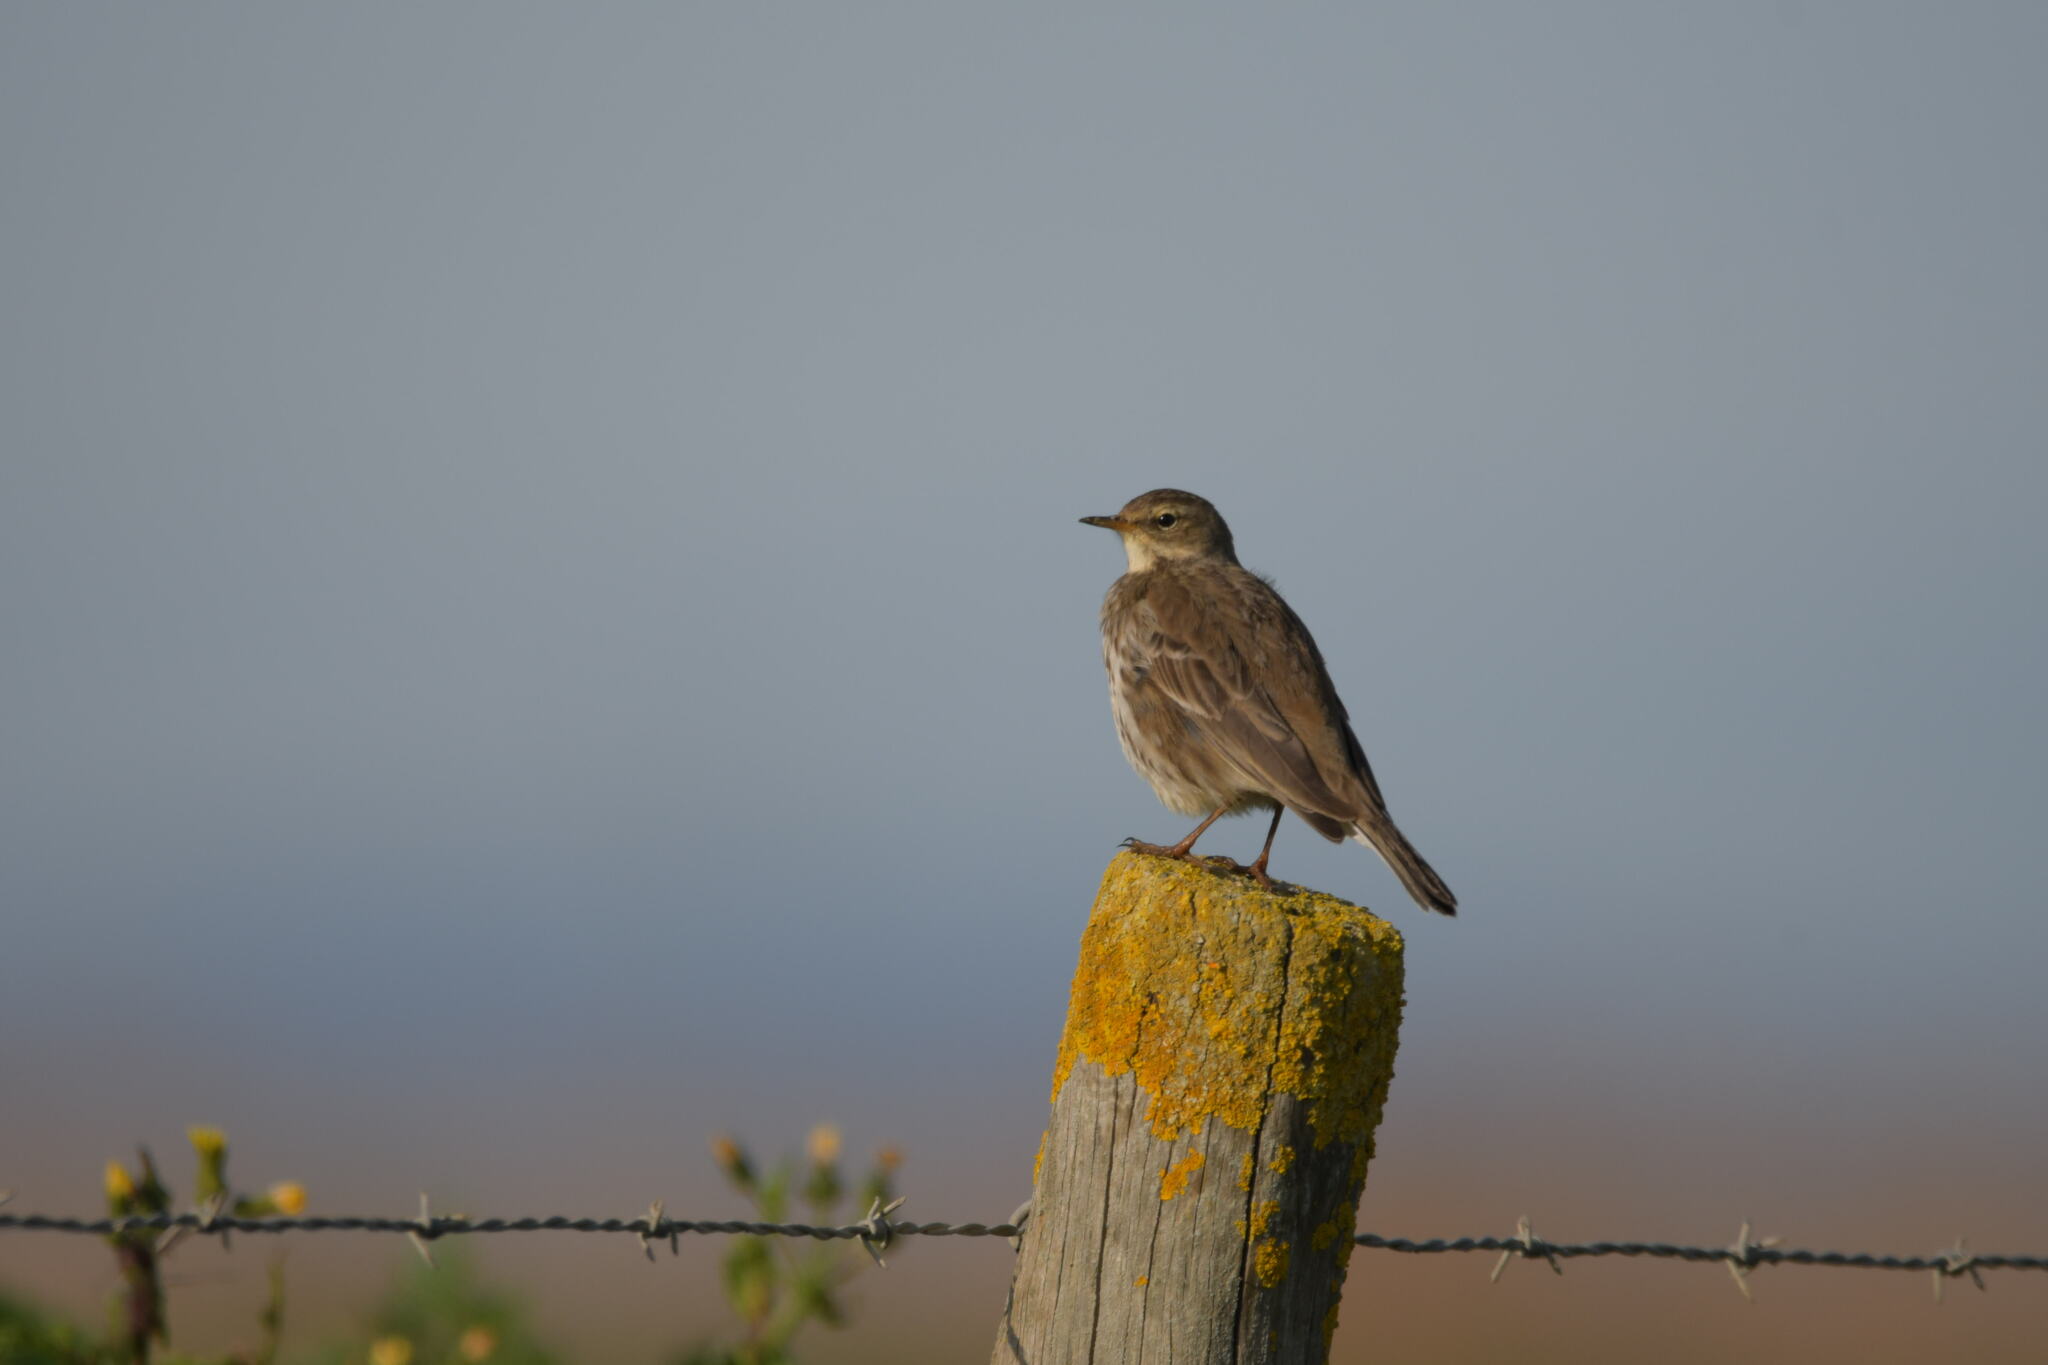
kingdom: Animalia
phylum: Chordata
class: Aves
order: Passeriformes
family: Motacillidae
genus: Anthus
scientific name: Anthus spinoletta
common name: Water pipit
